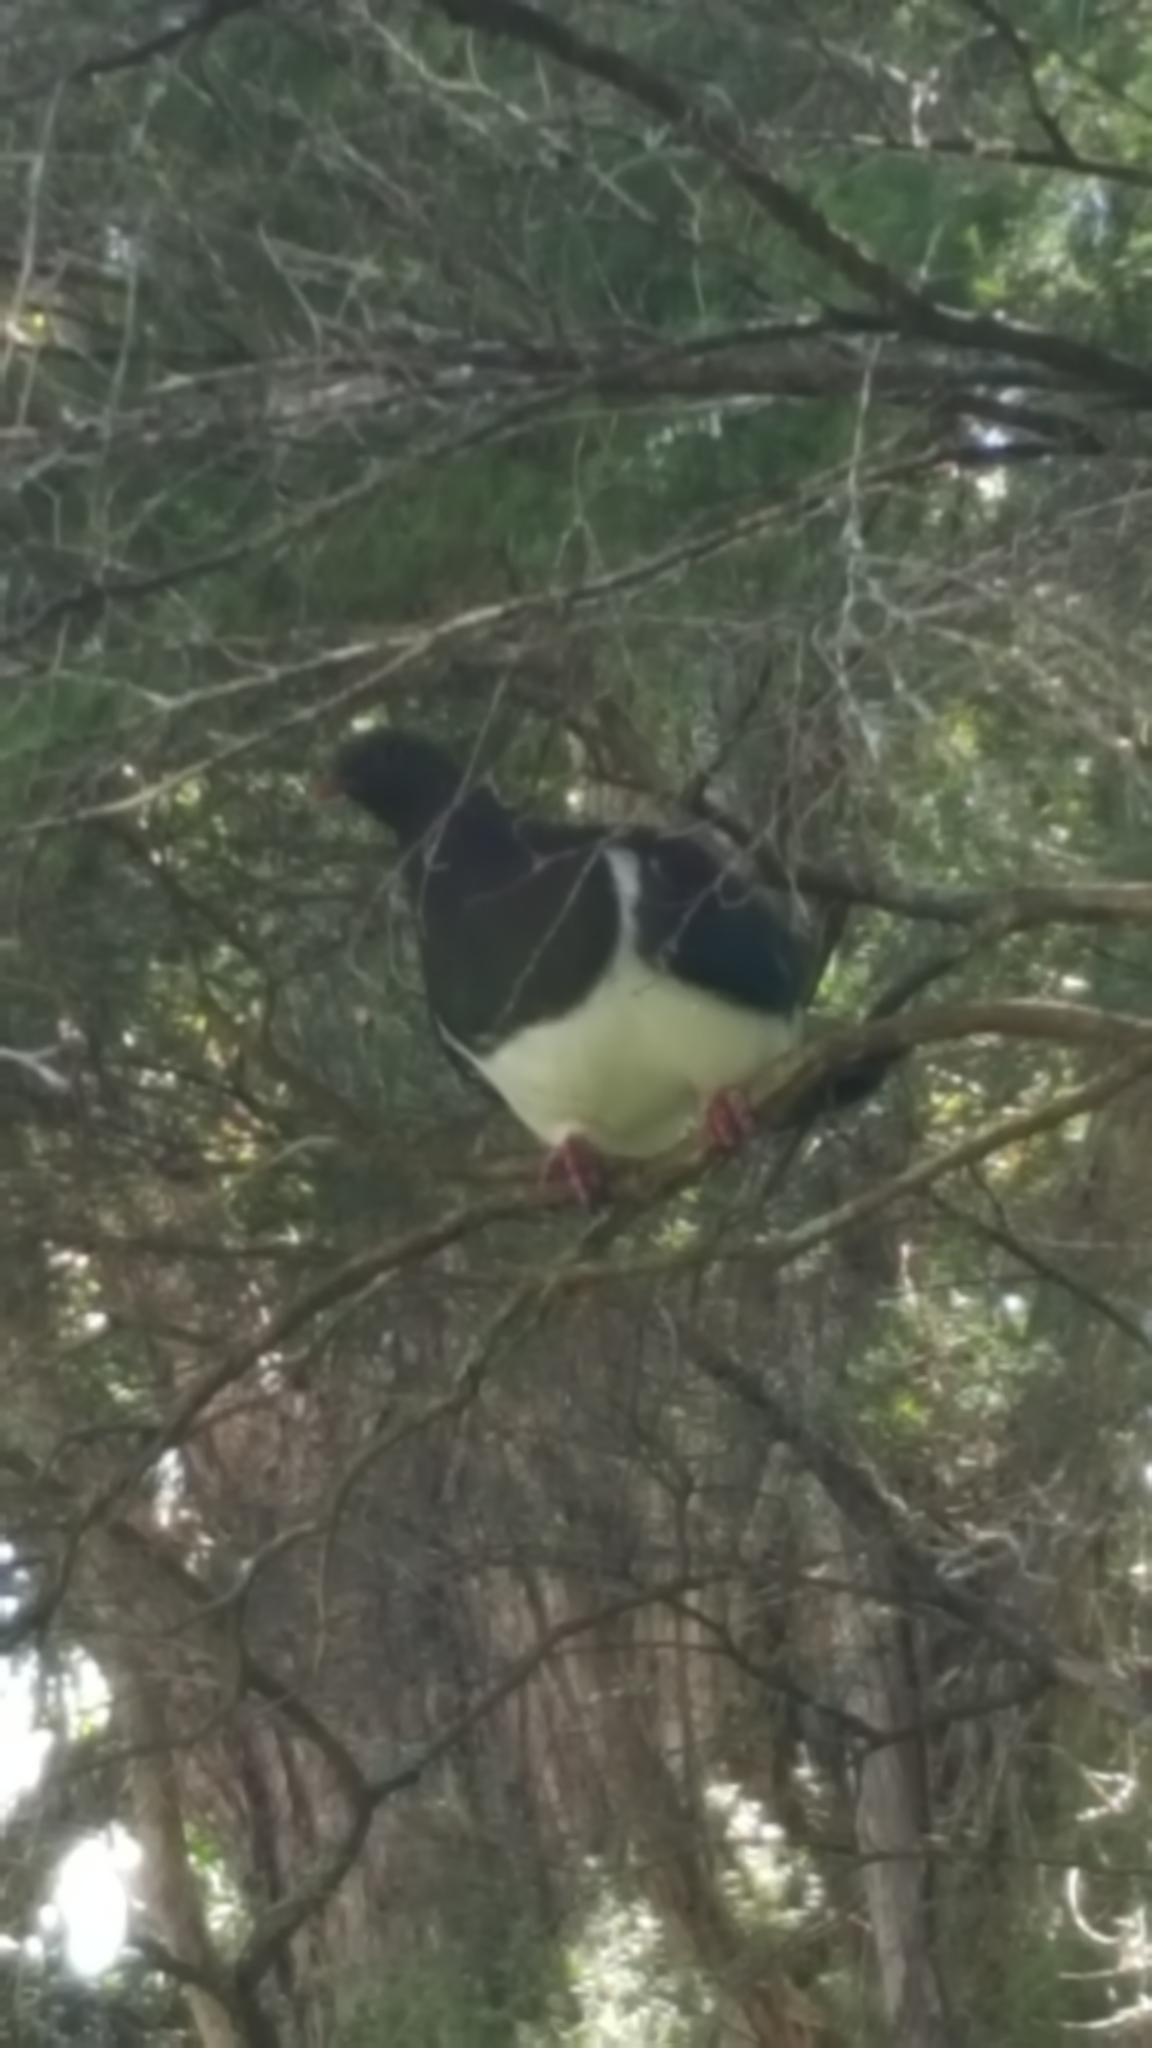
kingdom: Animalia
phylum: Chordata
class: Aves
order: Columbiformes
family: Columbidae
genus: Hemiphaga
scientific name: Hemiphaga novaeseelandiae
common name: New zealand pigeon
